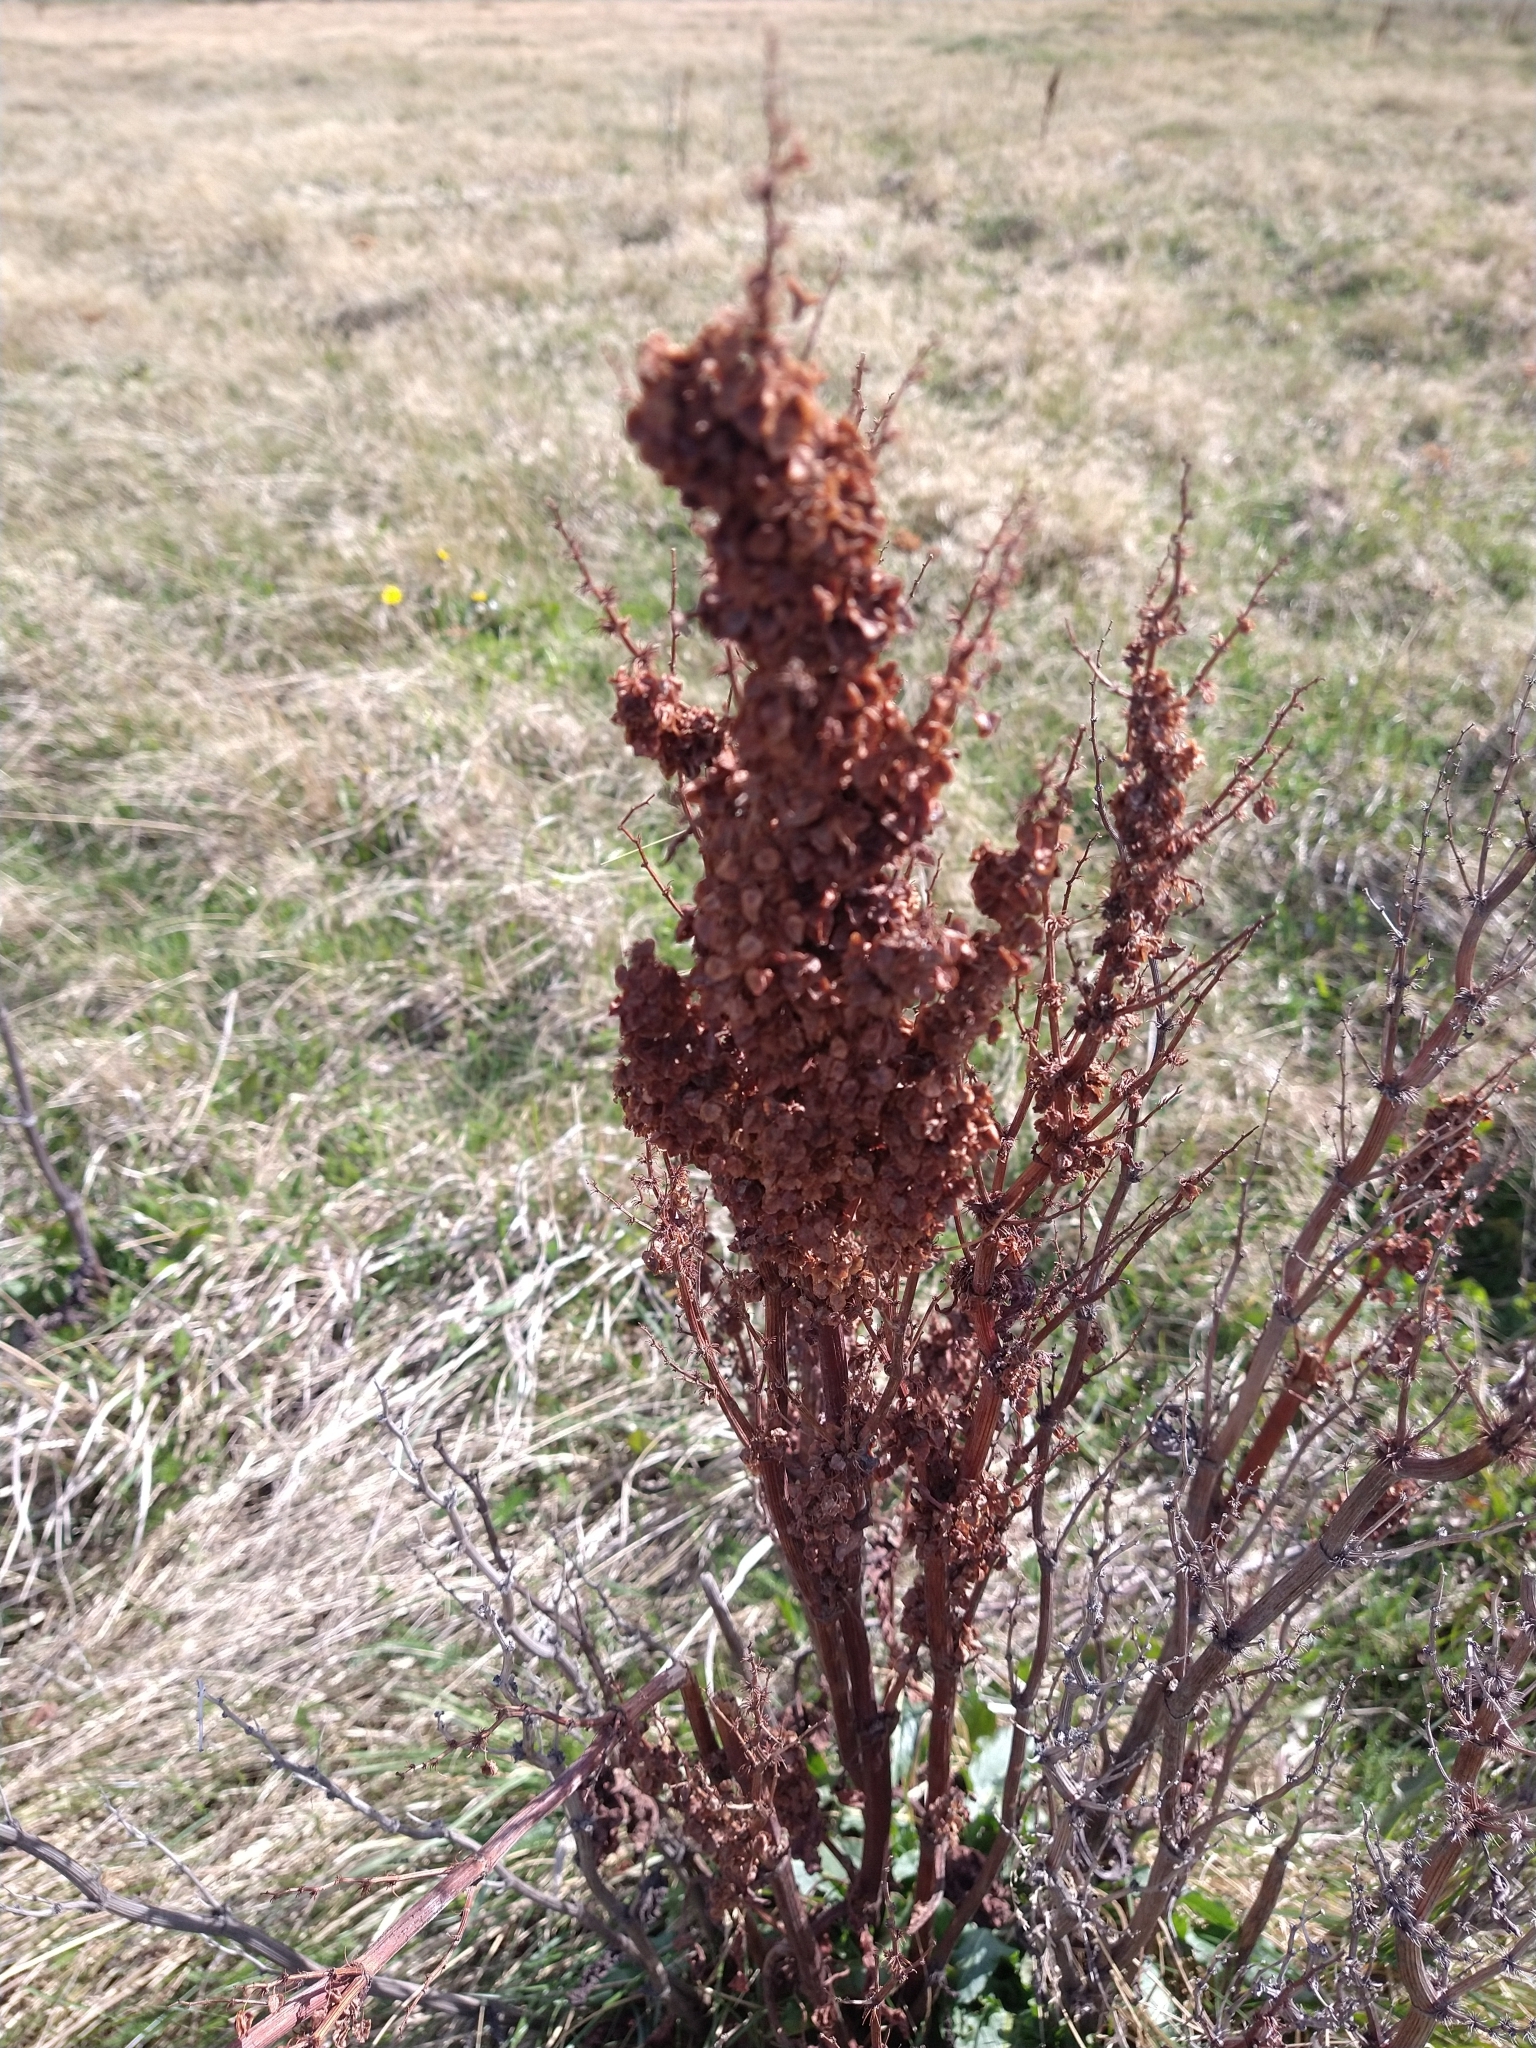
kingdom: Plantae
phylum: Tracheophyta
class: Magnoliopsida
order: Caryophyllales
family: Polygonaceae
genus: Rumex
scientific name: Rumex crispus
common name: Curled dock
